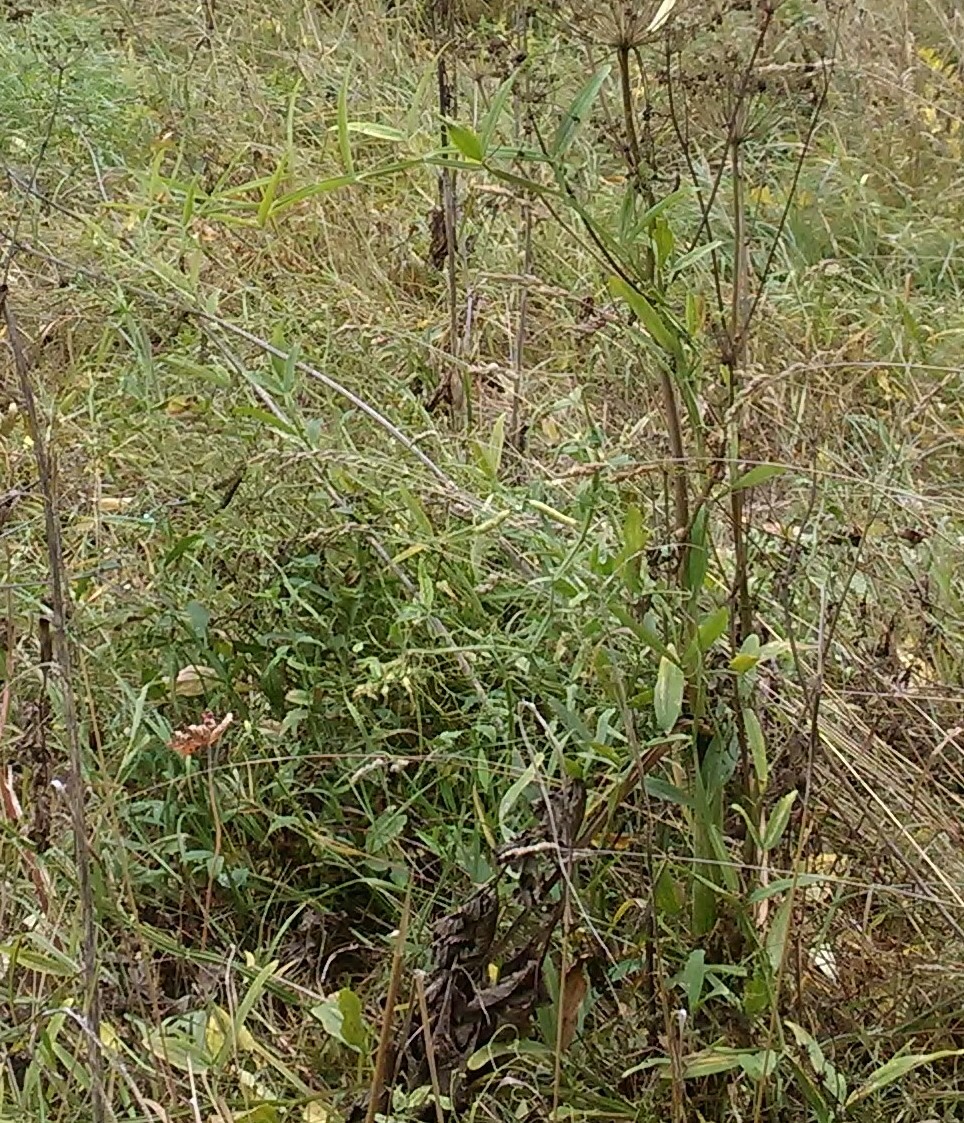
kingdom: Plantae
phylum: Tracheophyta
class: Magnoliopsida
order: Fabales
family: Fabaceae
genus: Lathyrus
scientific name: Lathyrus sylvestris
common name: Flat pea
